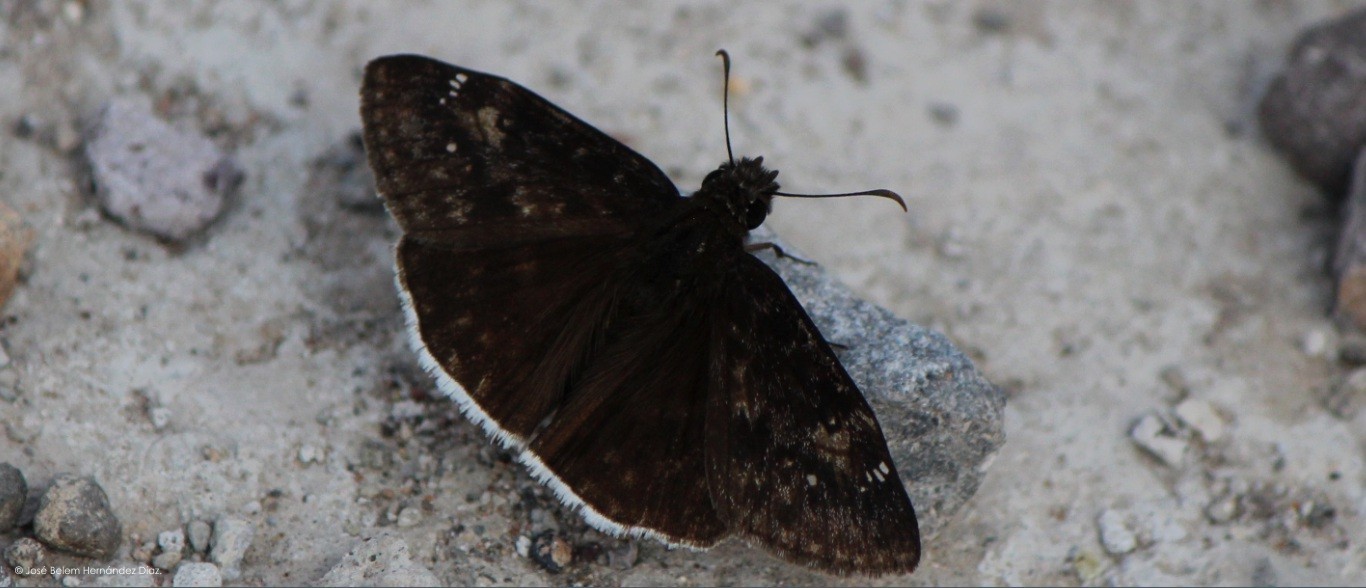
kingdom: Animalia
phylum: Arthropoda
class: Insecta
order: Lepidoptera
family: Hesperiidae
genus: Erynnis
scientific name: Erynnis funeralis
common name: Funereal duskywing
